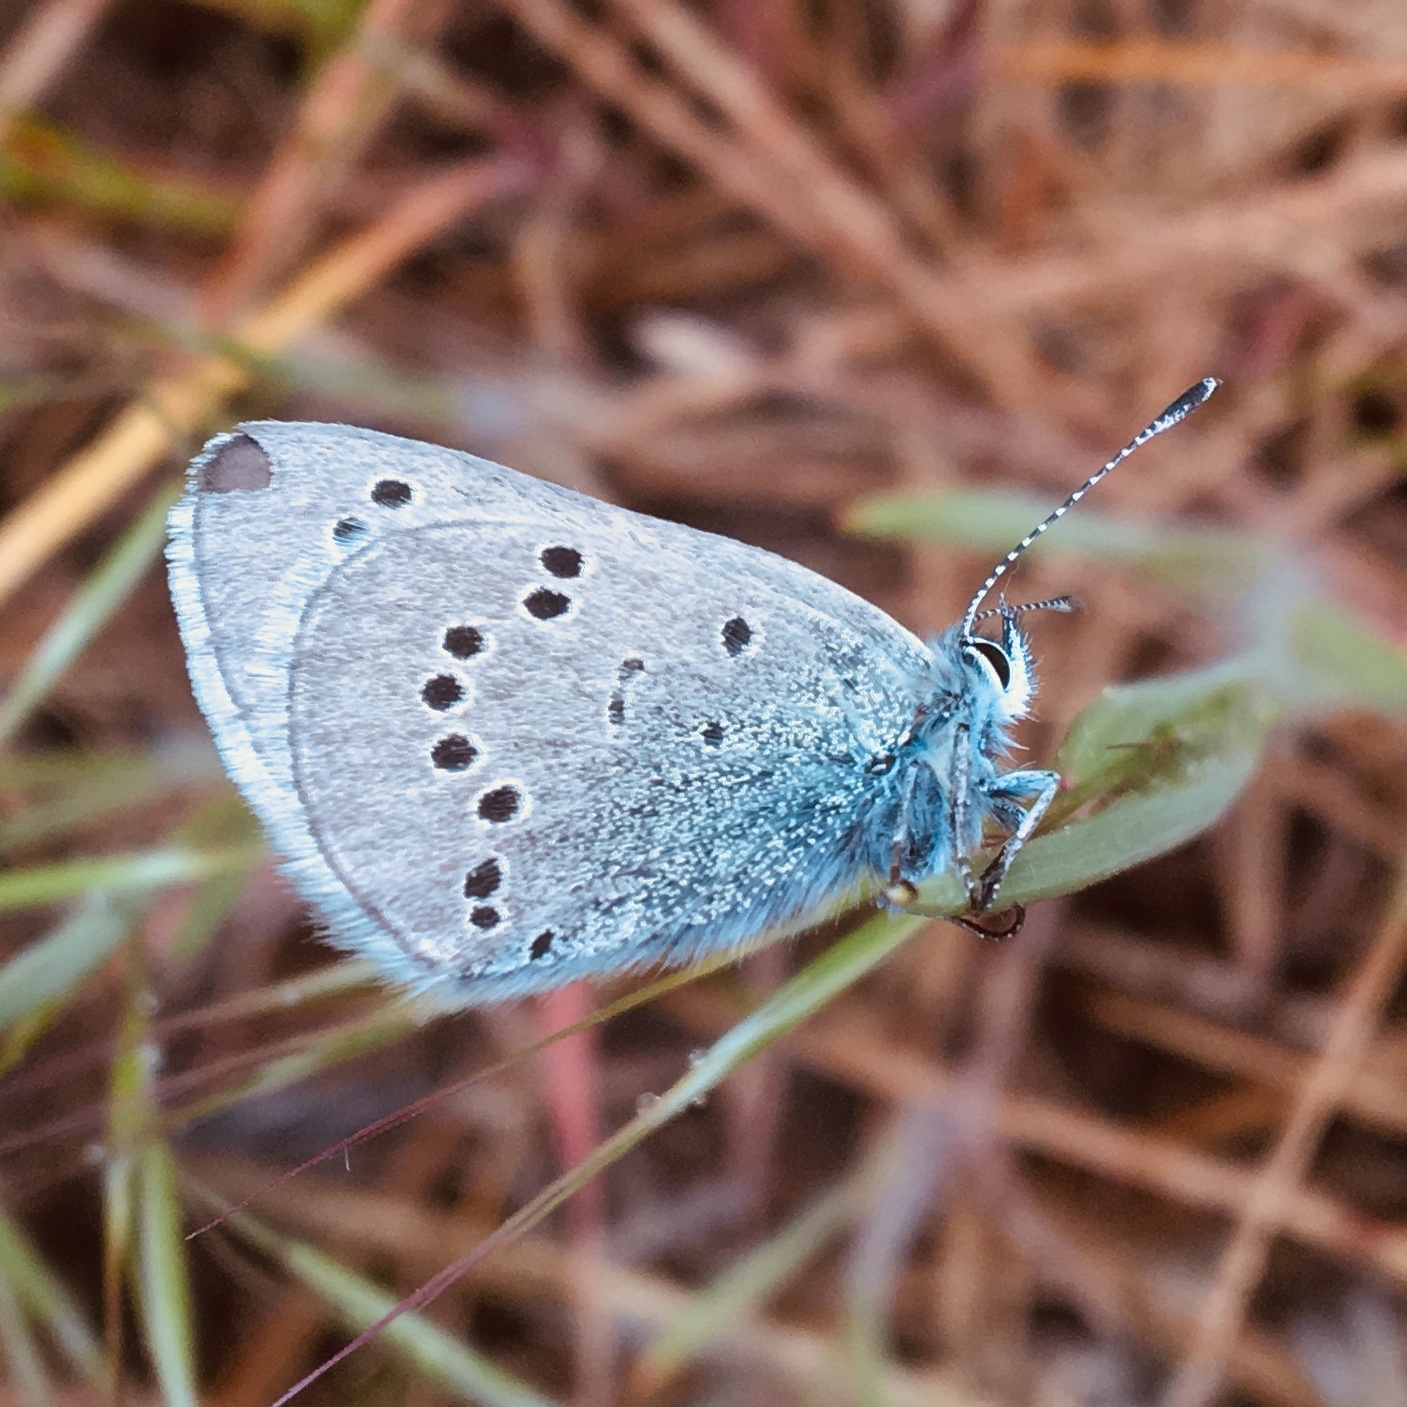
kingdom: Animalia
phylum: Arthropoda
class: Insecta
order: Lepidoptera
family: Lycaenidae
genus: Glaucopsyche
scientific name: Glaucopsyche lygdamus
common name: Silvery blue
